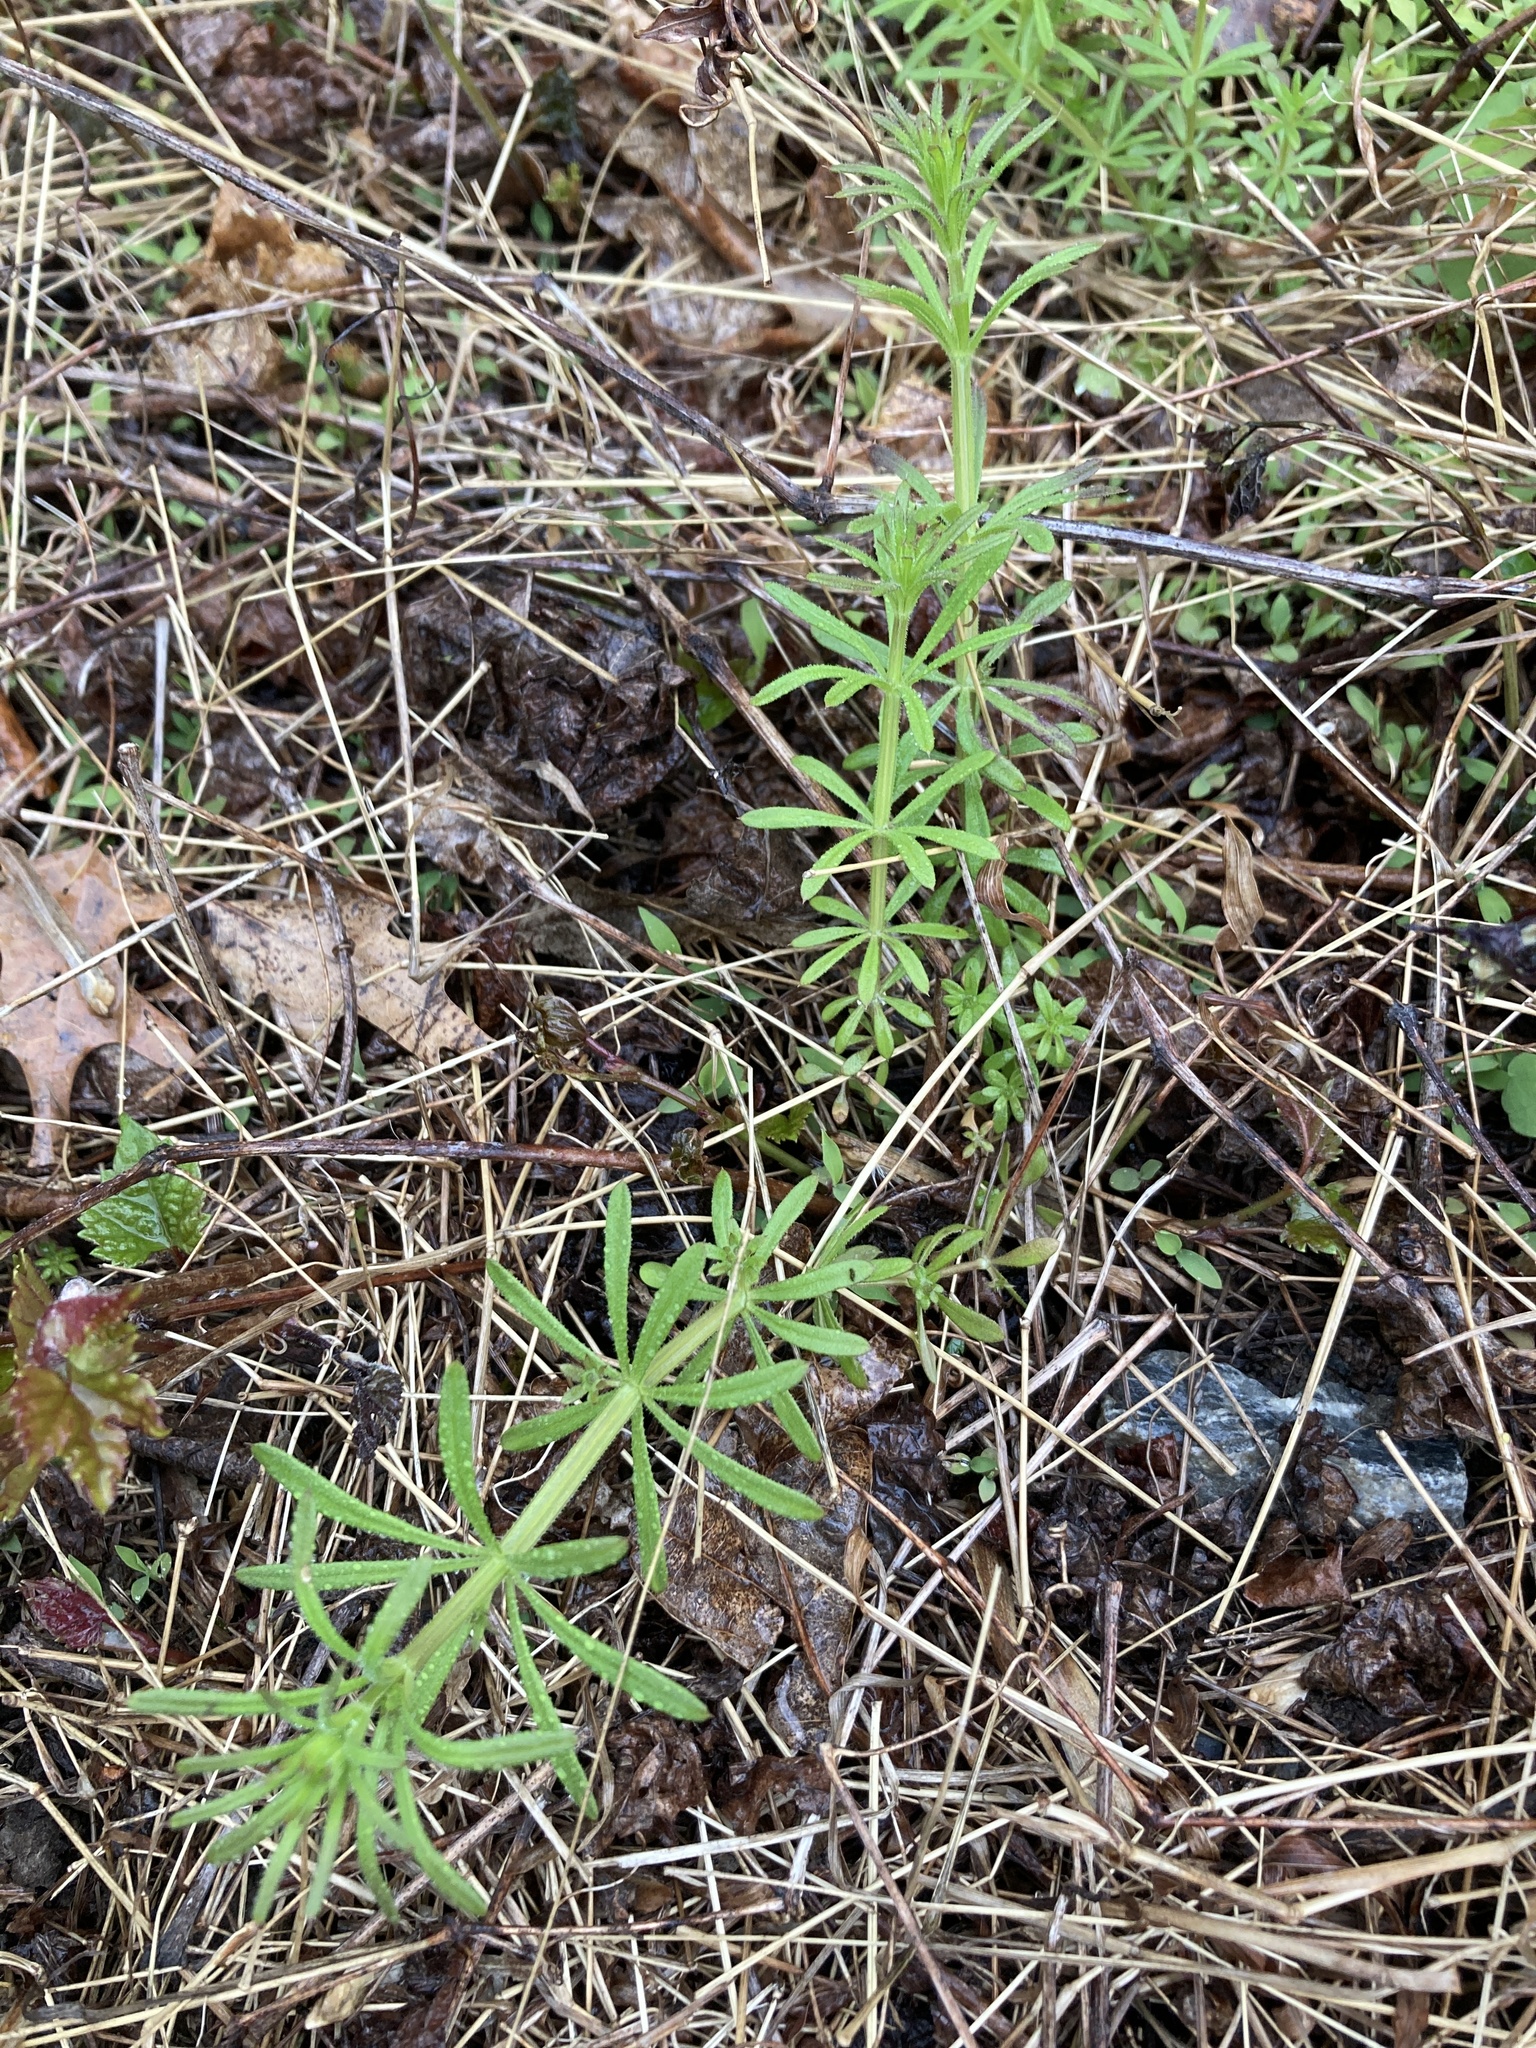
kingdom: Plantae
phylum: Tracheophyta
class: Magnoliopsida
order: Gentianales
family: Rubiaceae
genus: Galium
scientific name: Galium aparine
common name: Cleavers
